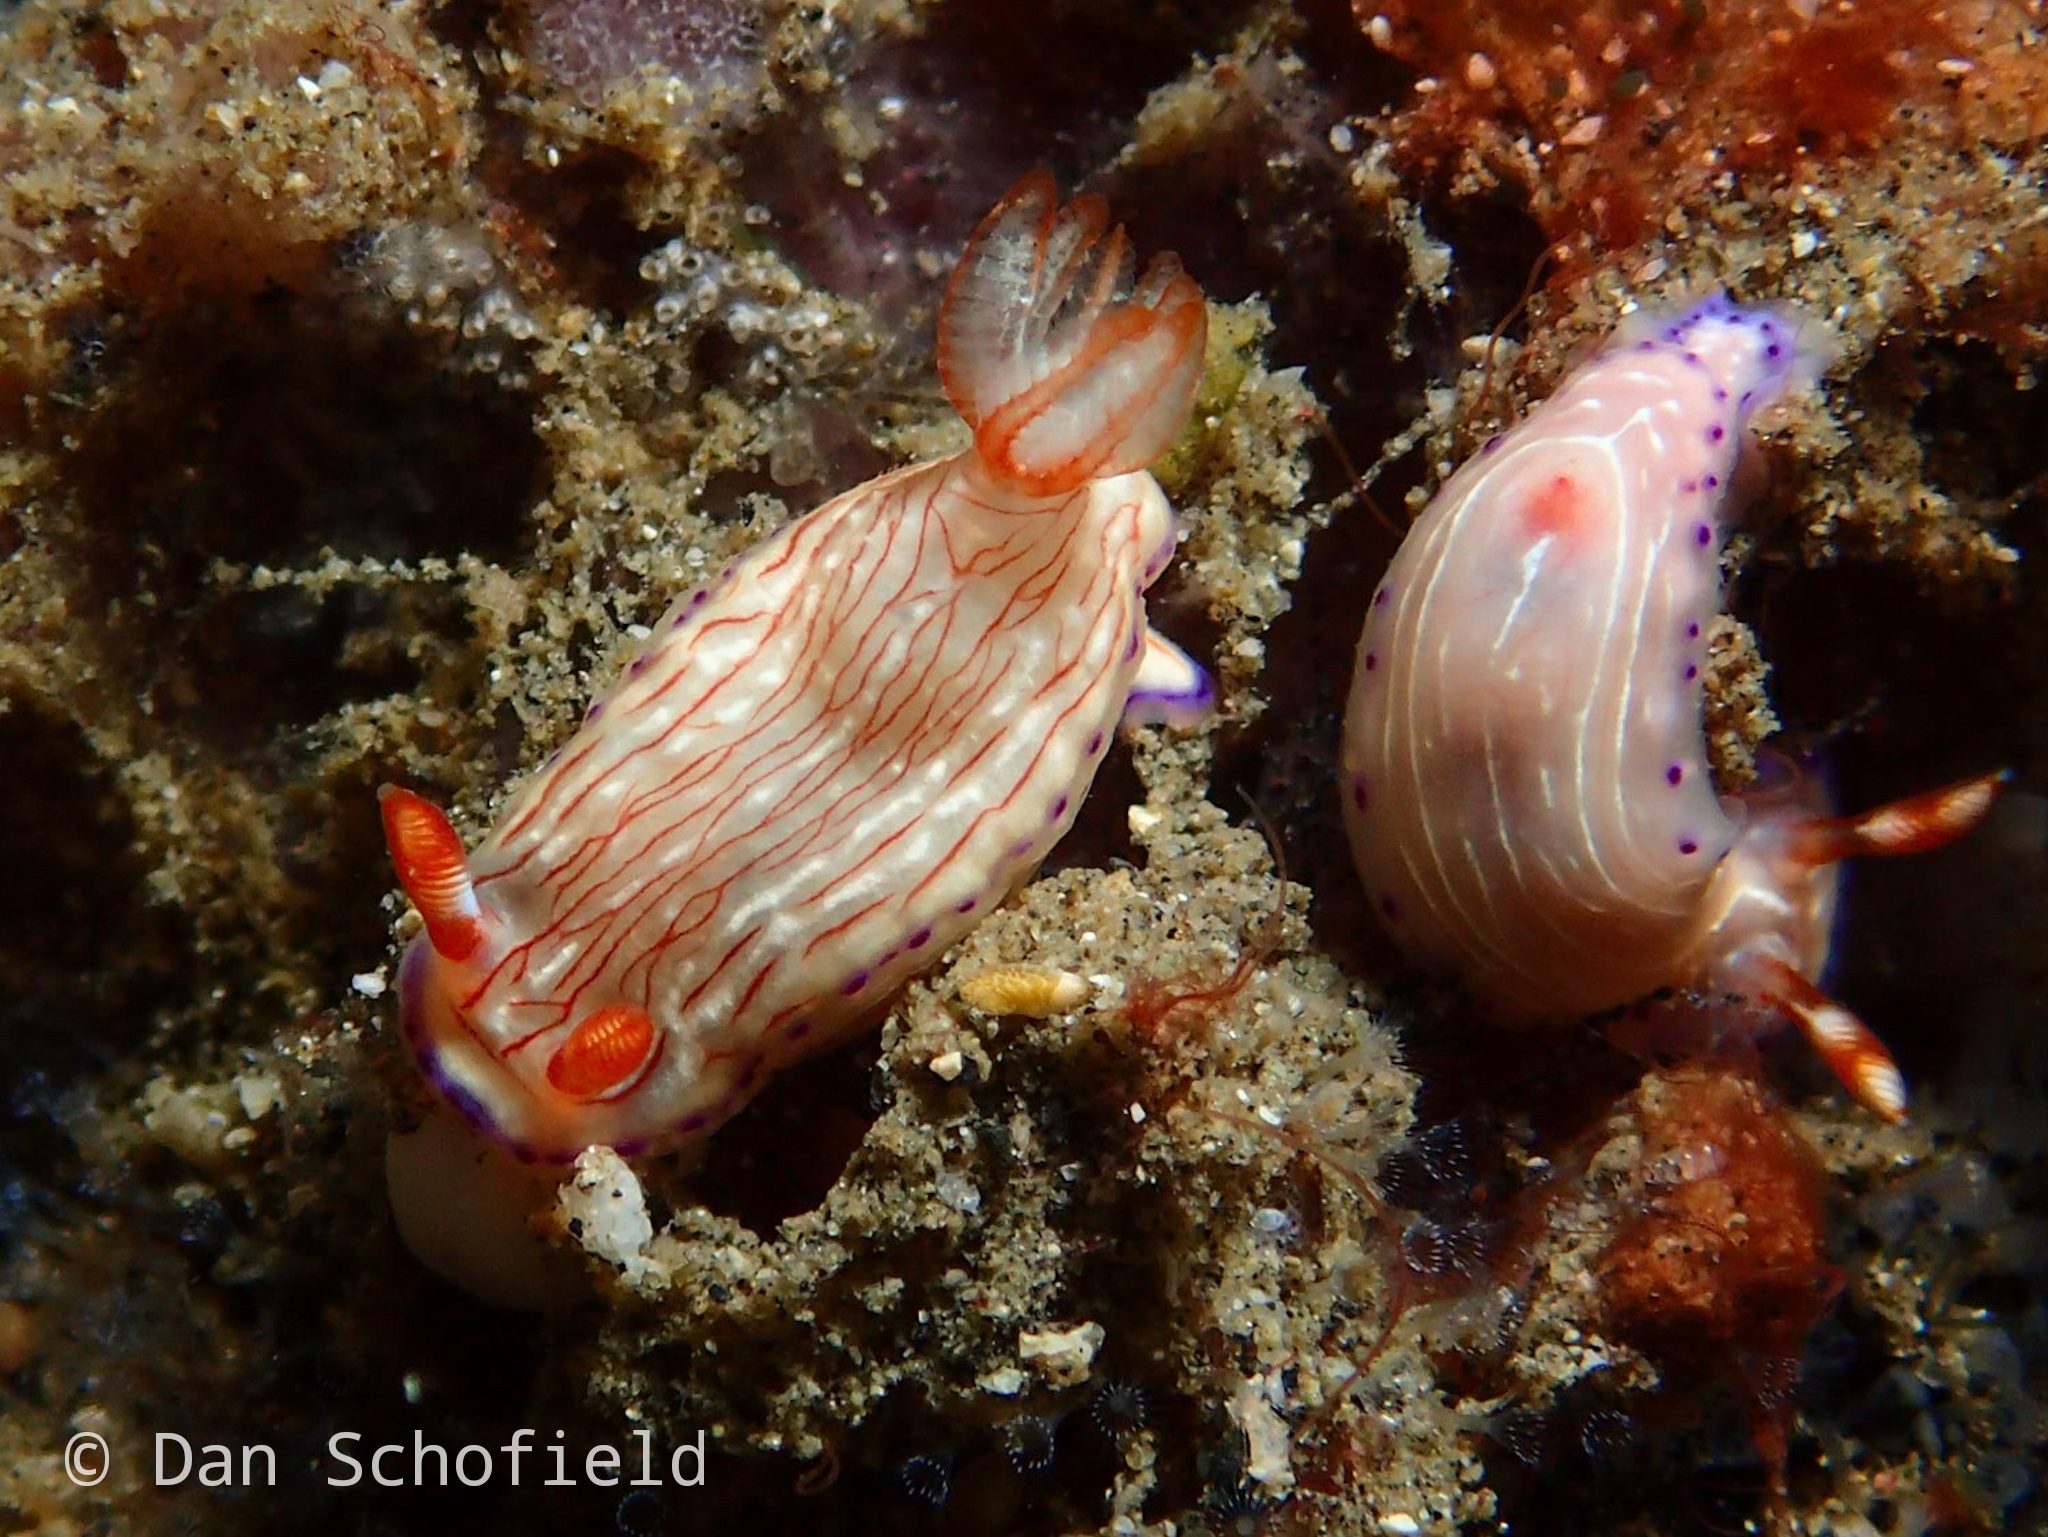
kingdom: Animalia
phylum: Mollusca
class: Gastropoda
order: Nudibranchia
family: Chromodorididae
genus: Hypselodoris
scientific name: Hypselodoris katherinae
